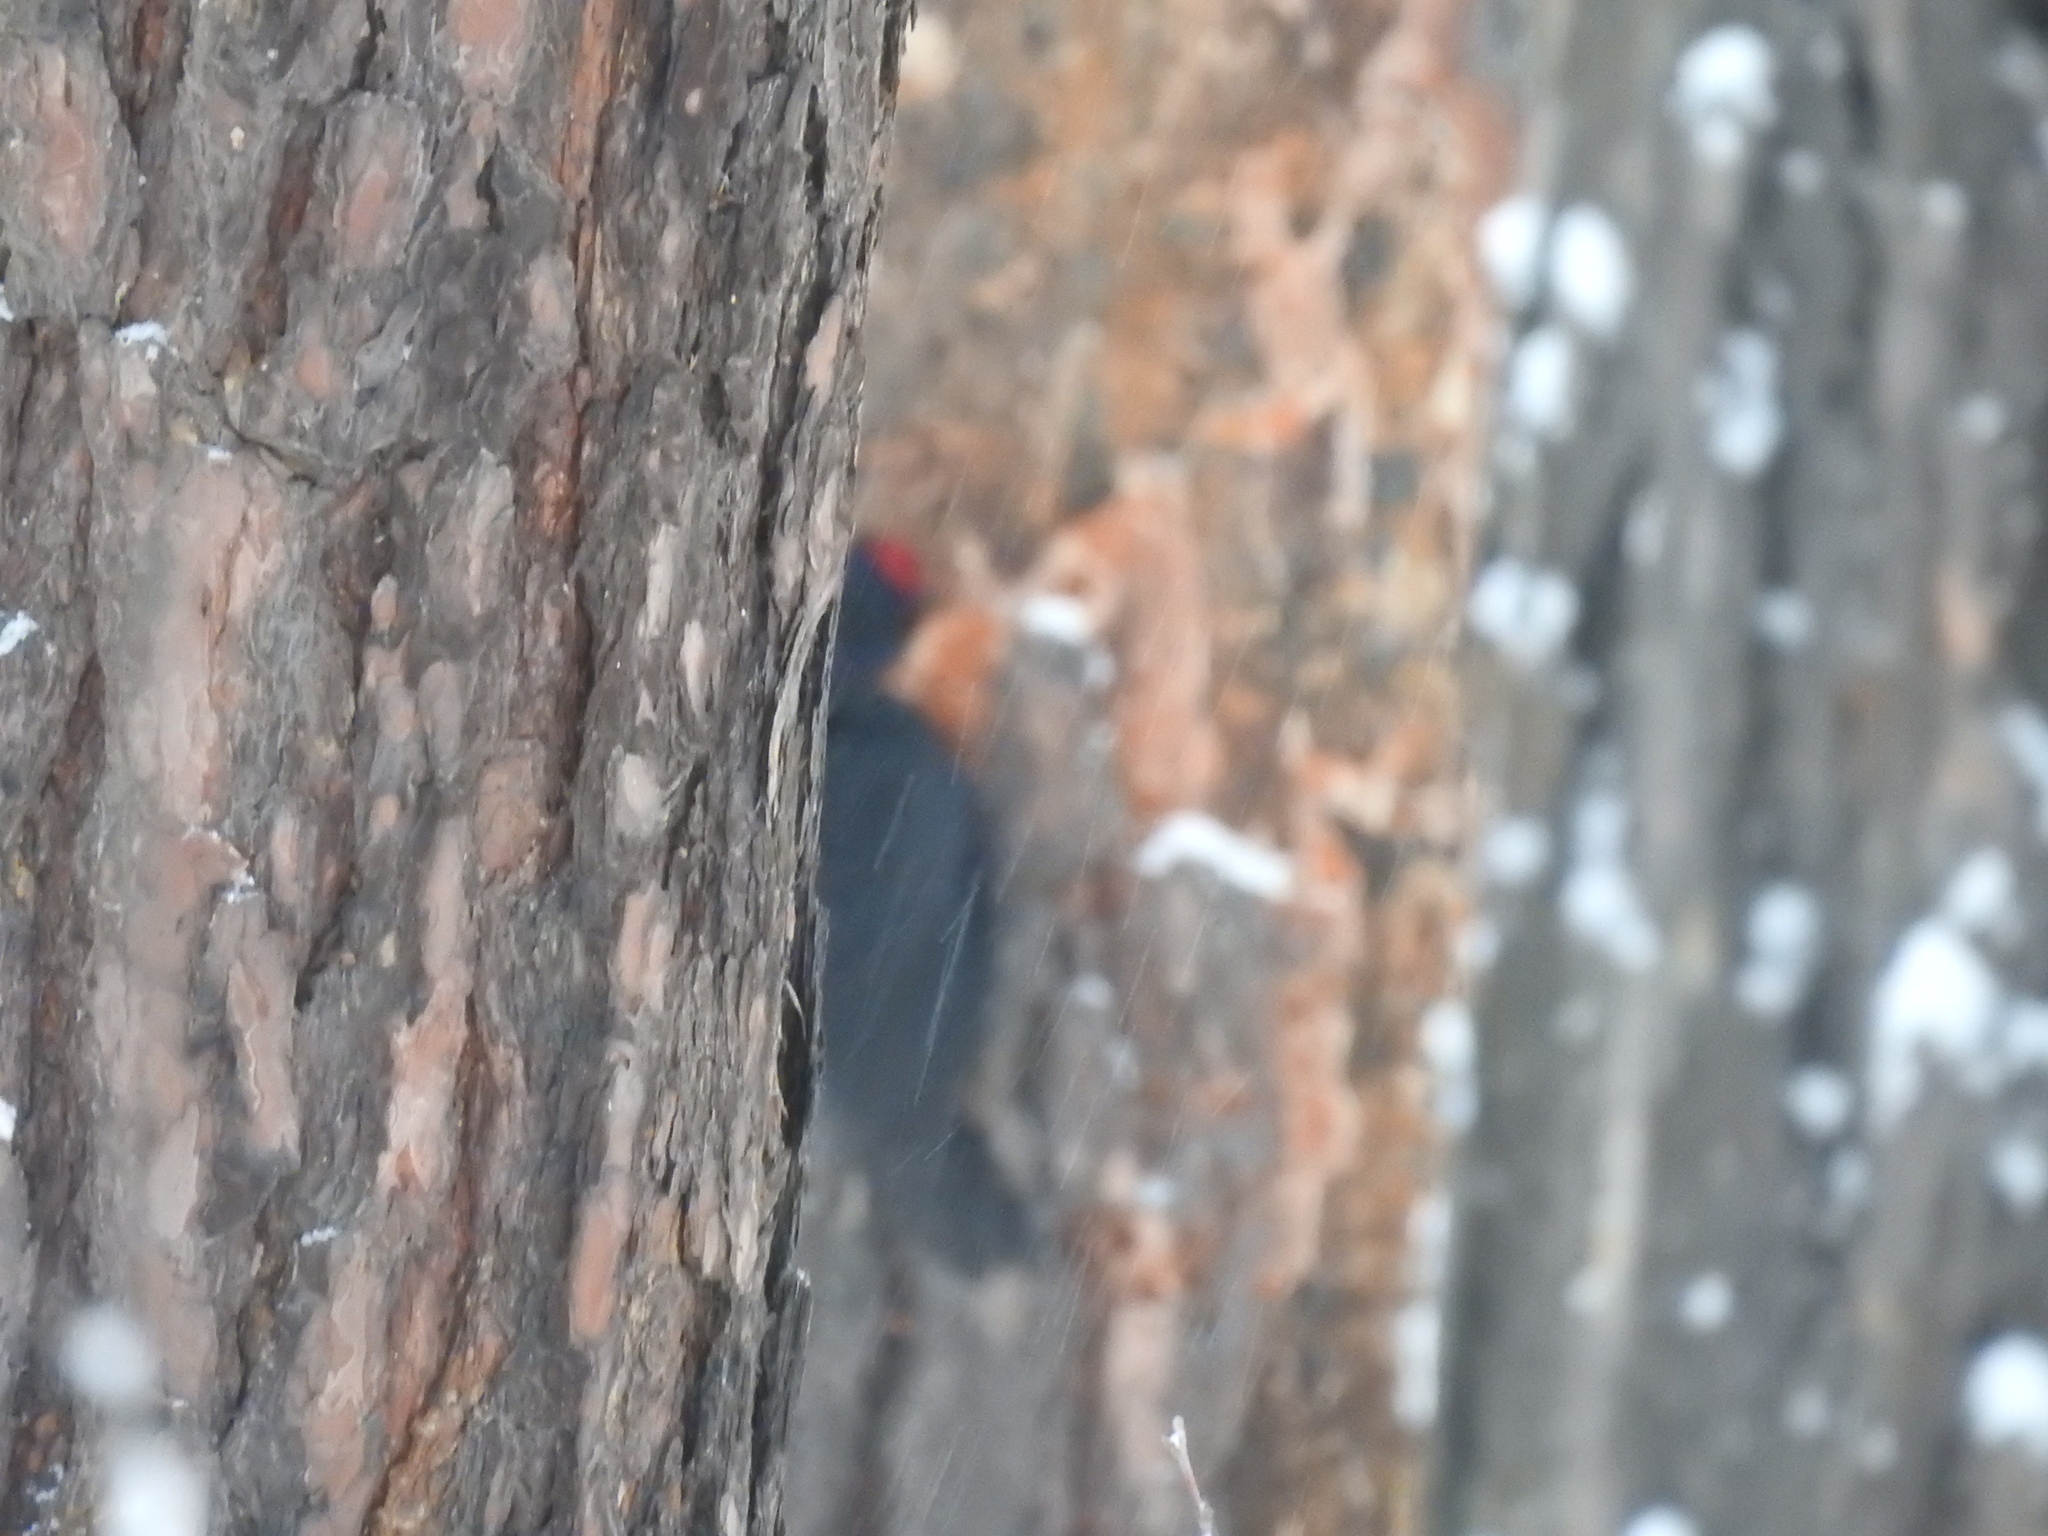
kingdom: Animalia
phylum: Chordata
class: Aves
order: Piciformes
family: Picidae
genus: Dryocopus
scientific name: Dryocopus martius
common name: Black woodpecker
